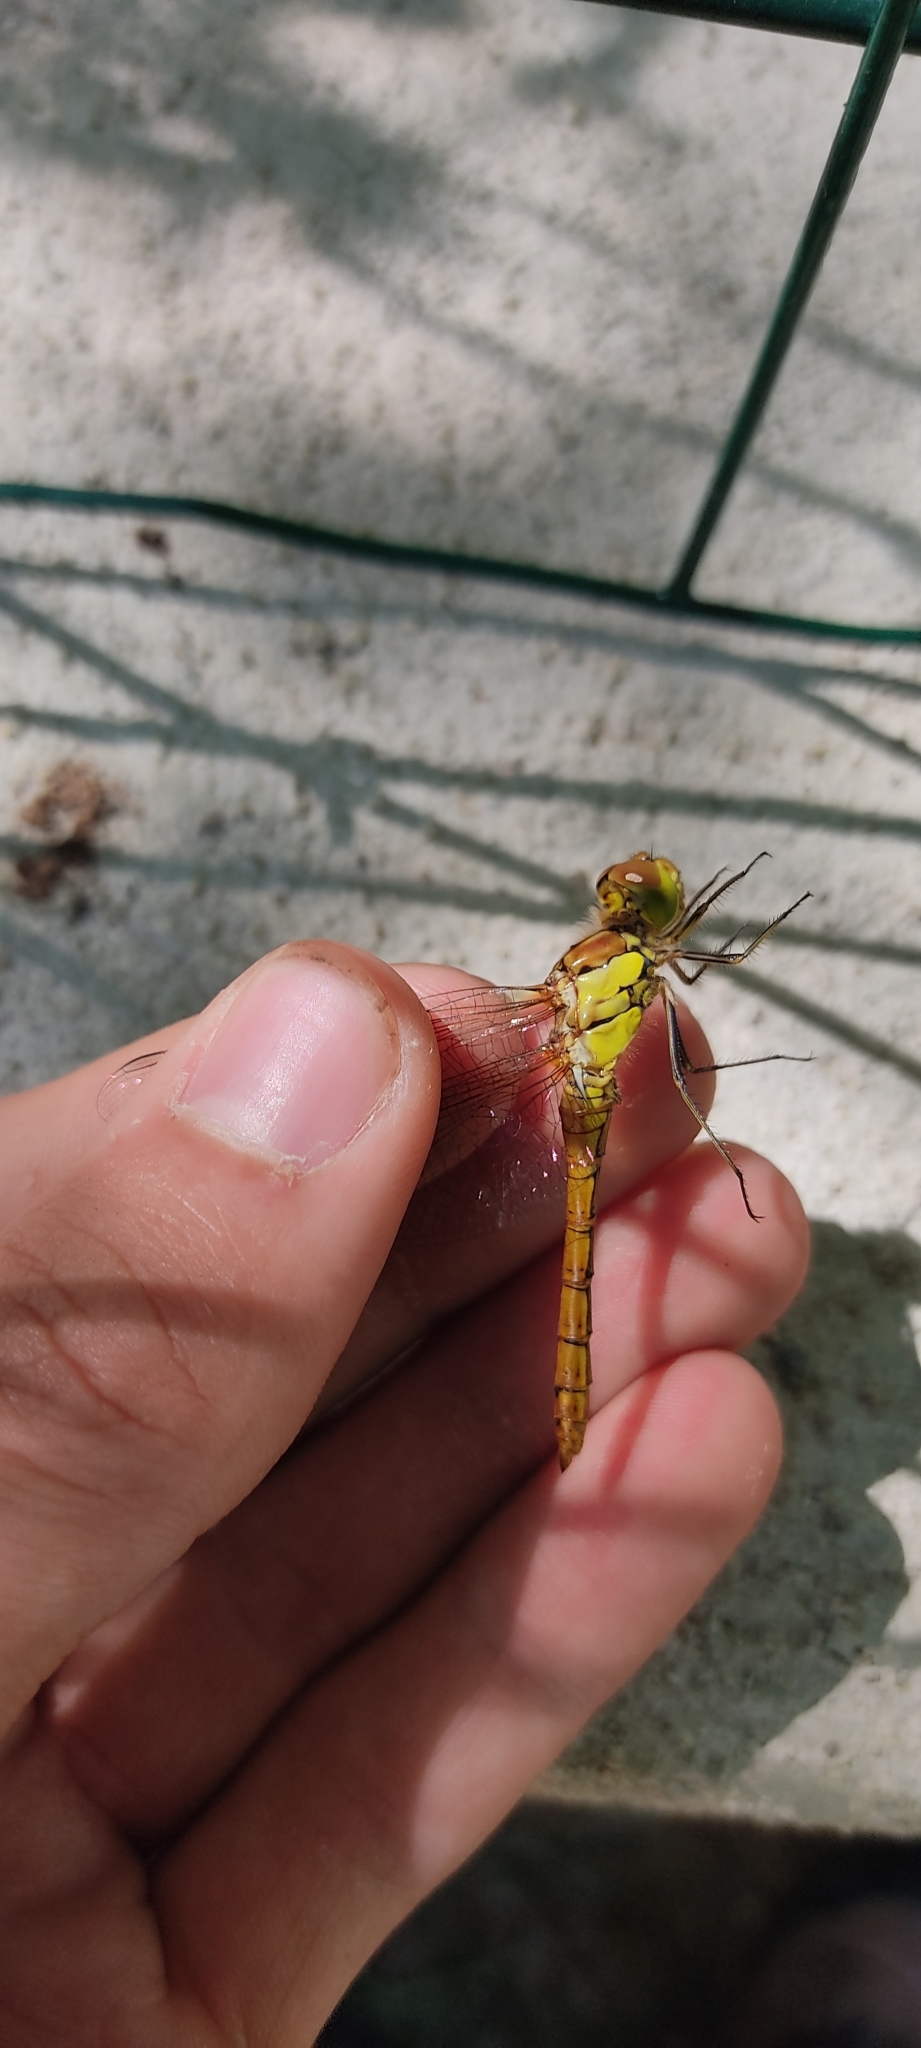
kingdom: Animalia
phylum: Arthropoda
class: Insecta
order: Odonata
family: Libellulidae
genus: Sympetrum
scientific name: Sympetrum striolatum
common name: Common darter
